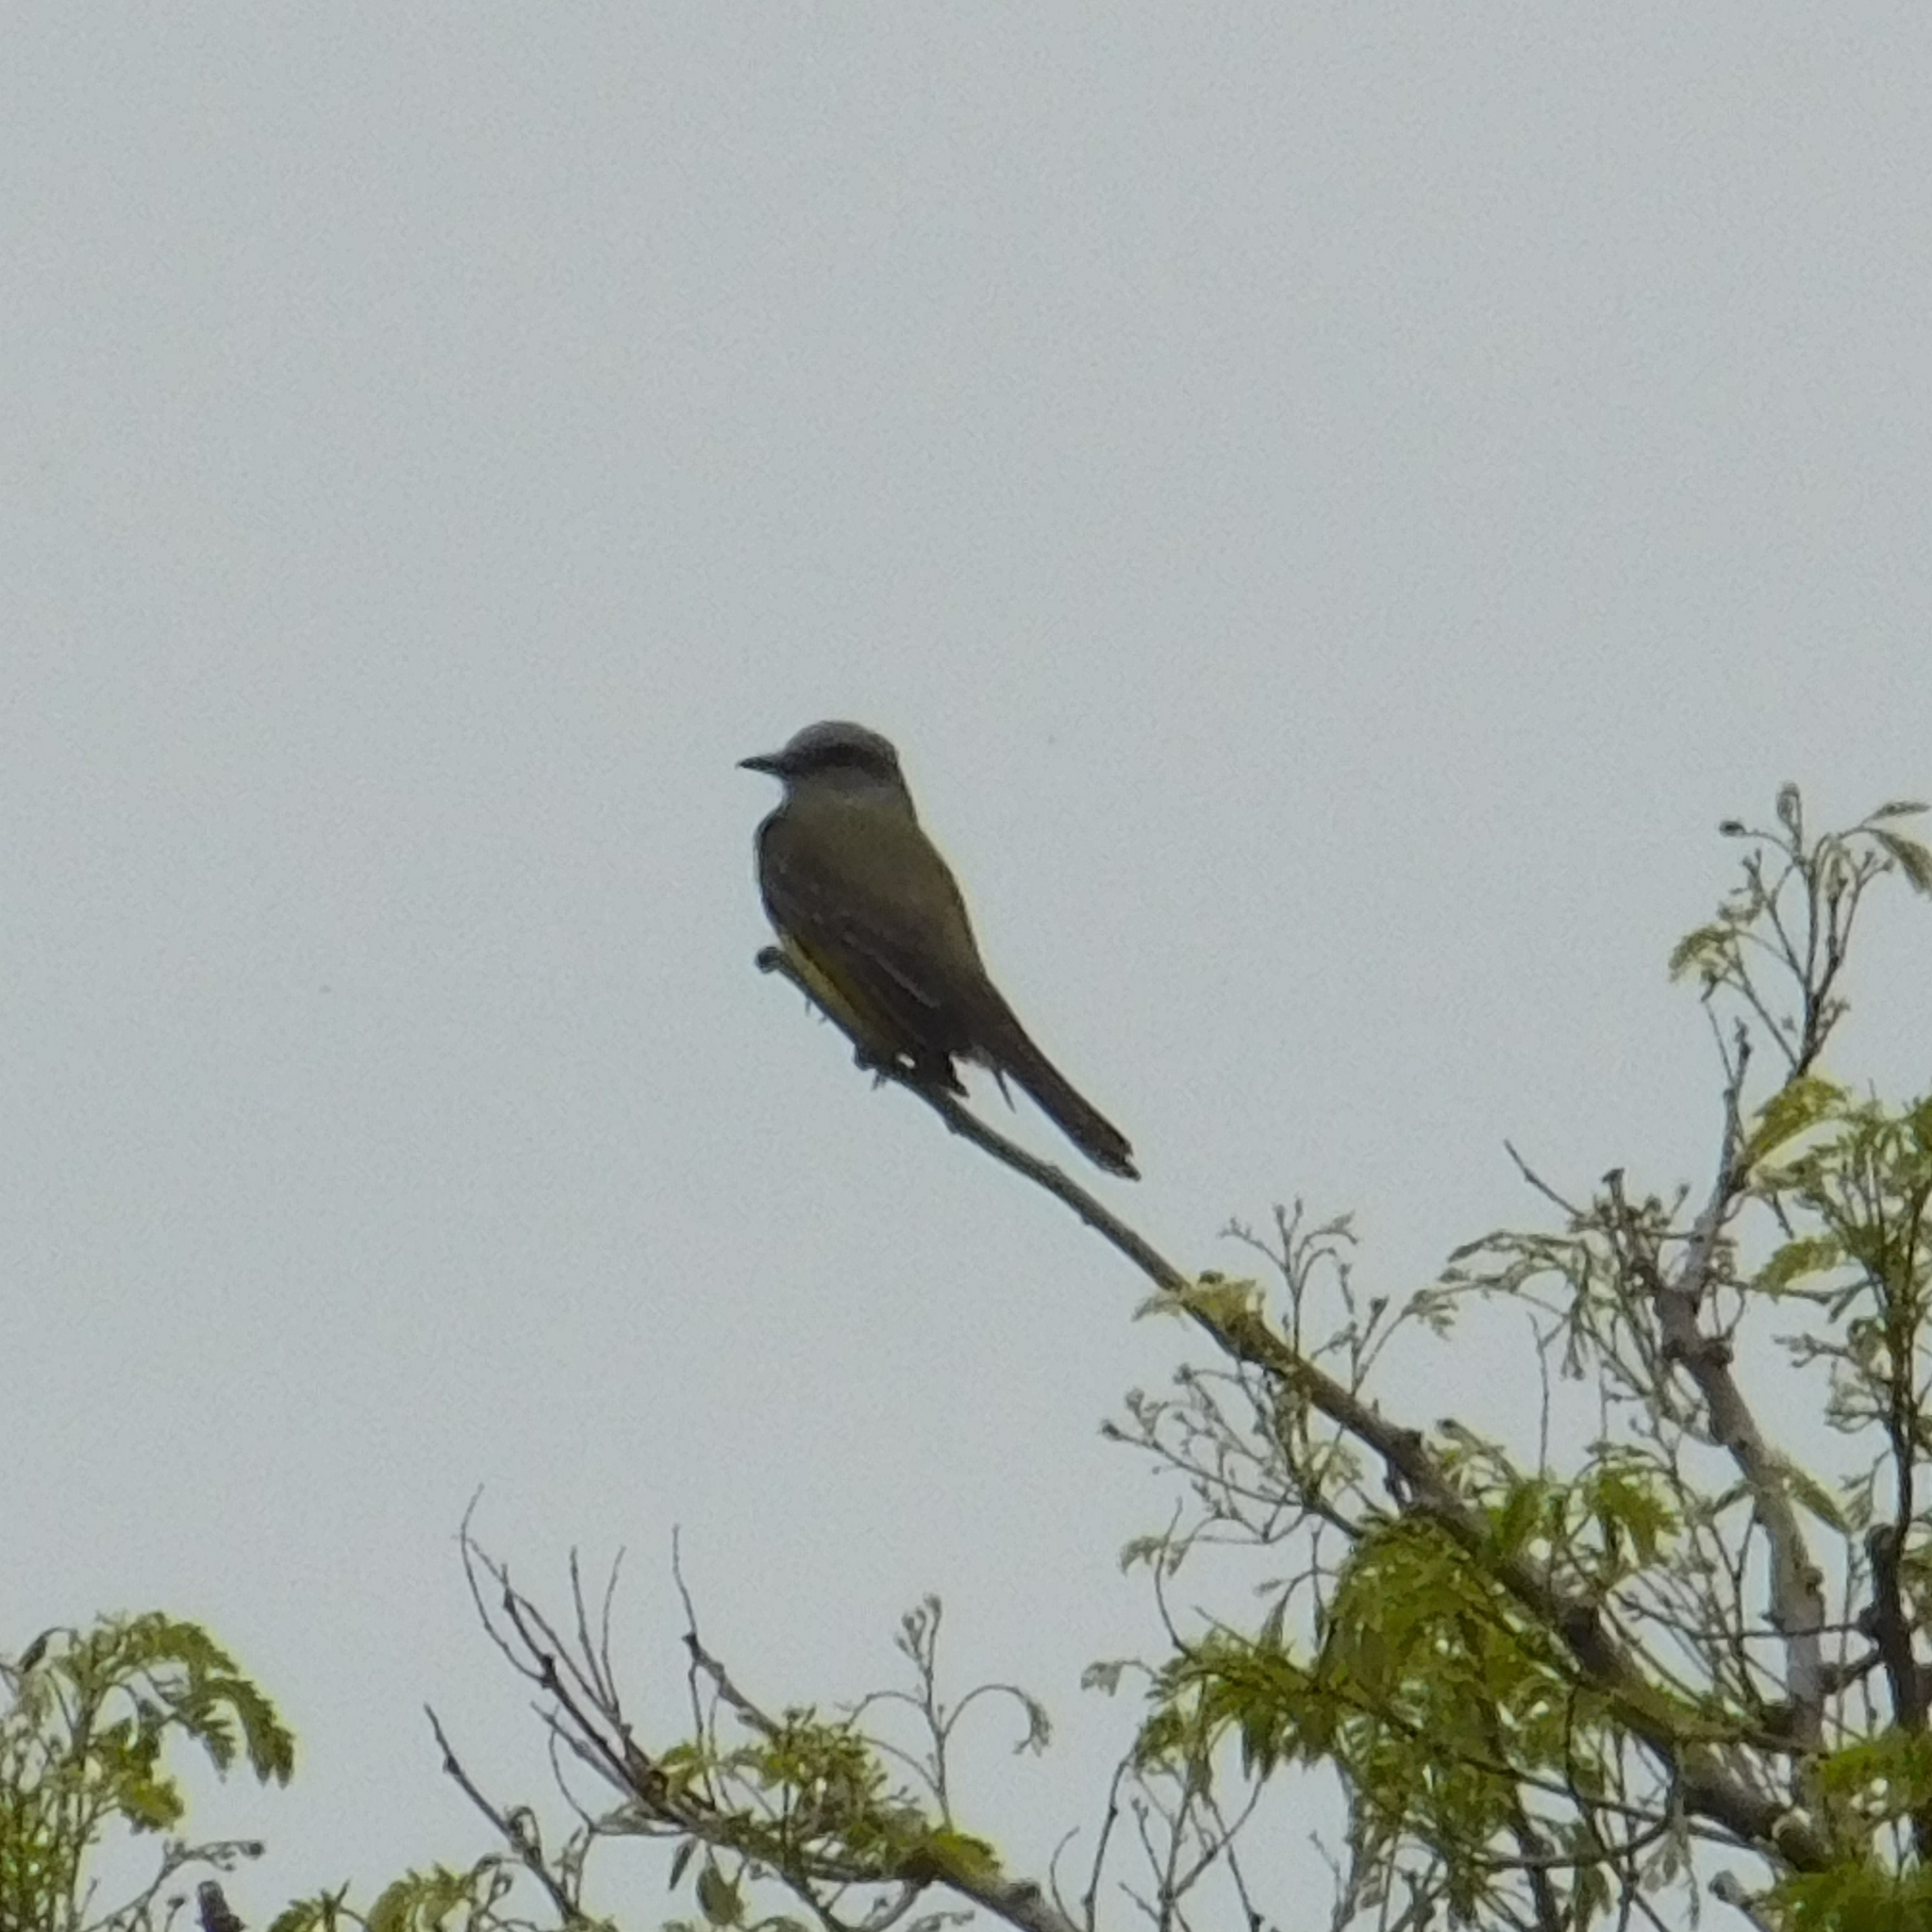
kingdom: Animalia
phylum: Chordata
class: Aves
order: Passeriformes
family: Tyrannidae
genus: Tyrannus
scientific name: Tyrannus melancholicus
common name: Tropical kingbird
